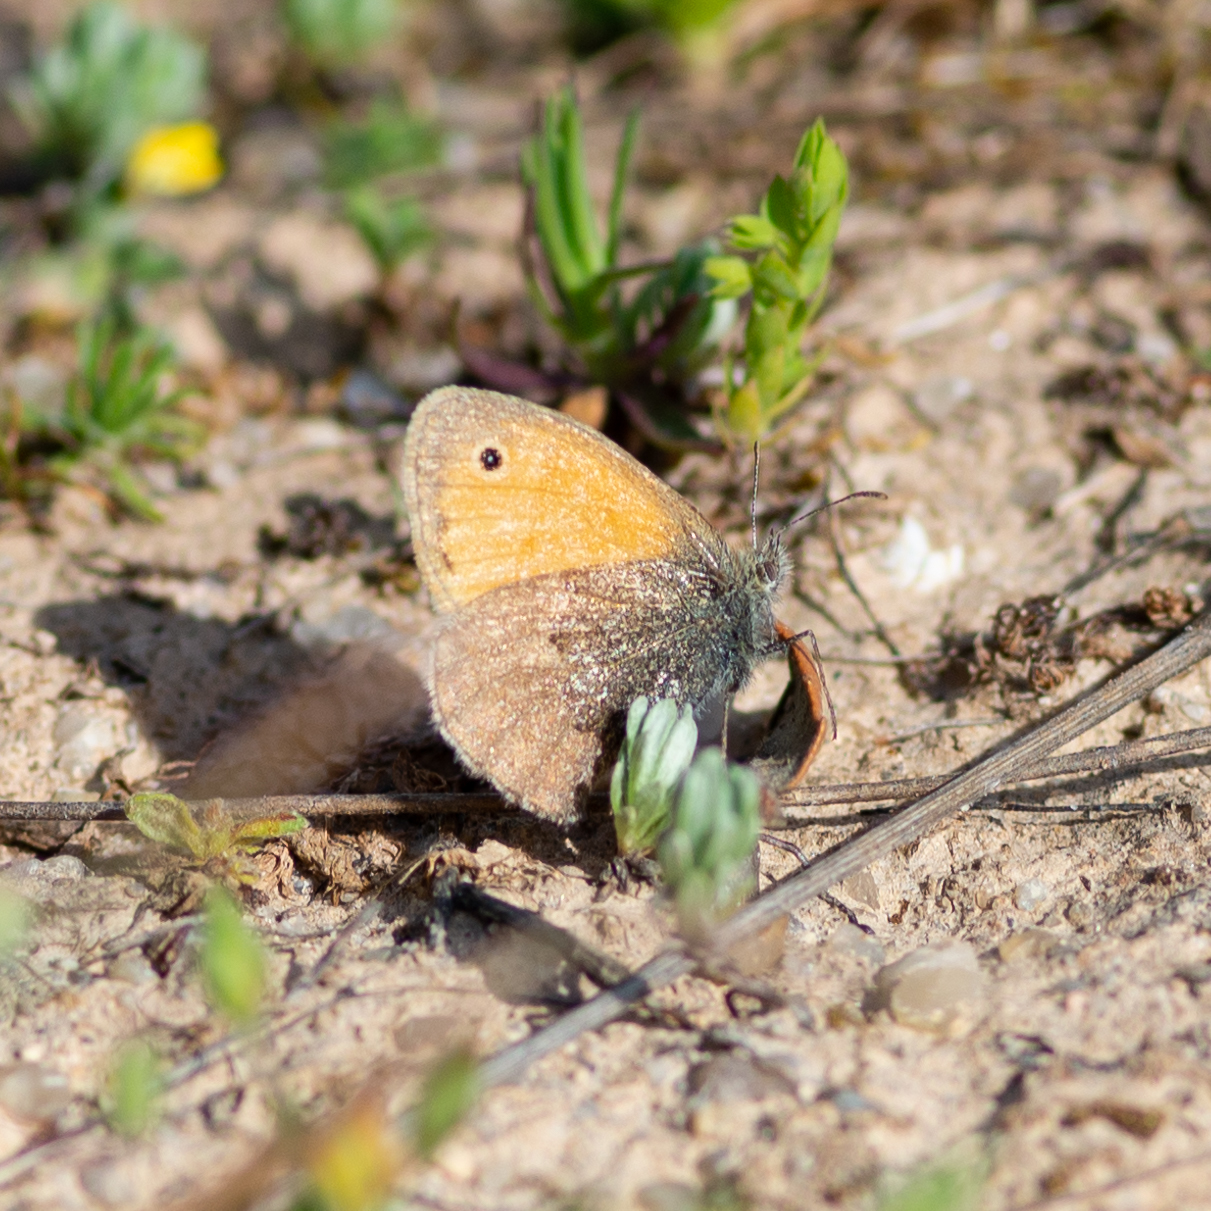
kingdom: Animalia
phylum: Arthropoda
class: Insecta
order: Lepidoptera
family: Nymphalidae
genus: Coenonympha
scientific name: Coenonympha pamphilus
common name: Small heath
